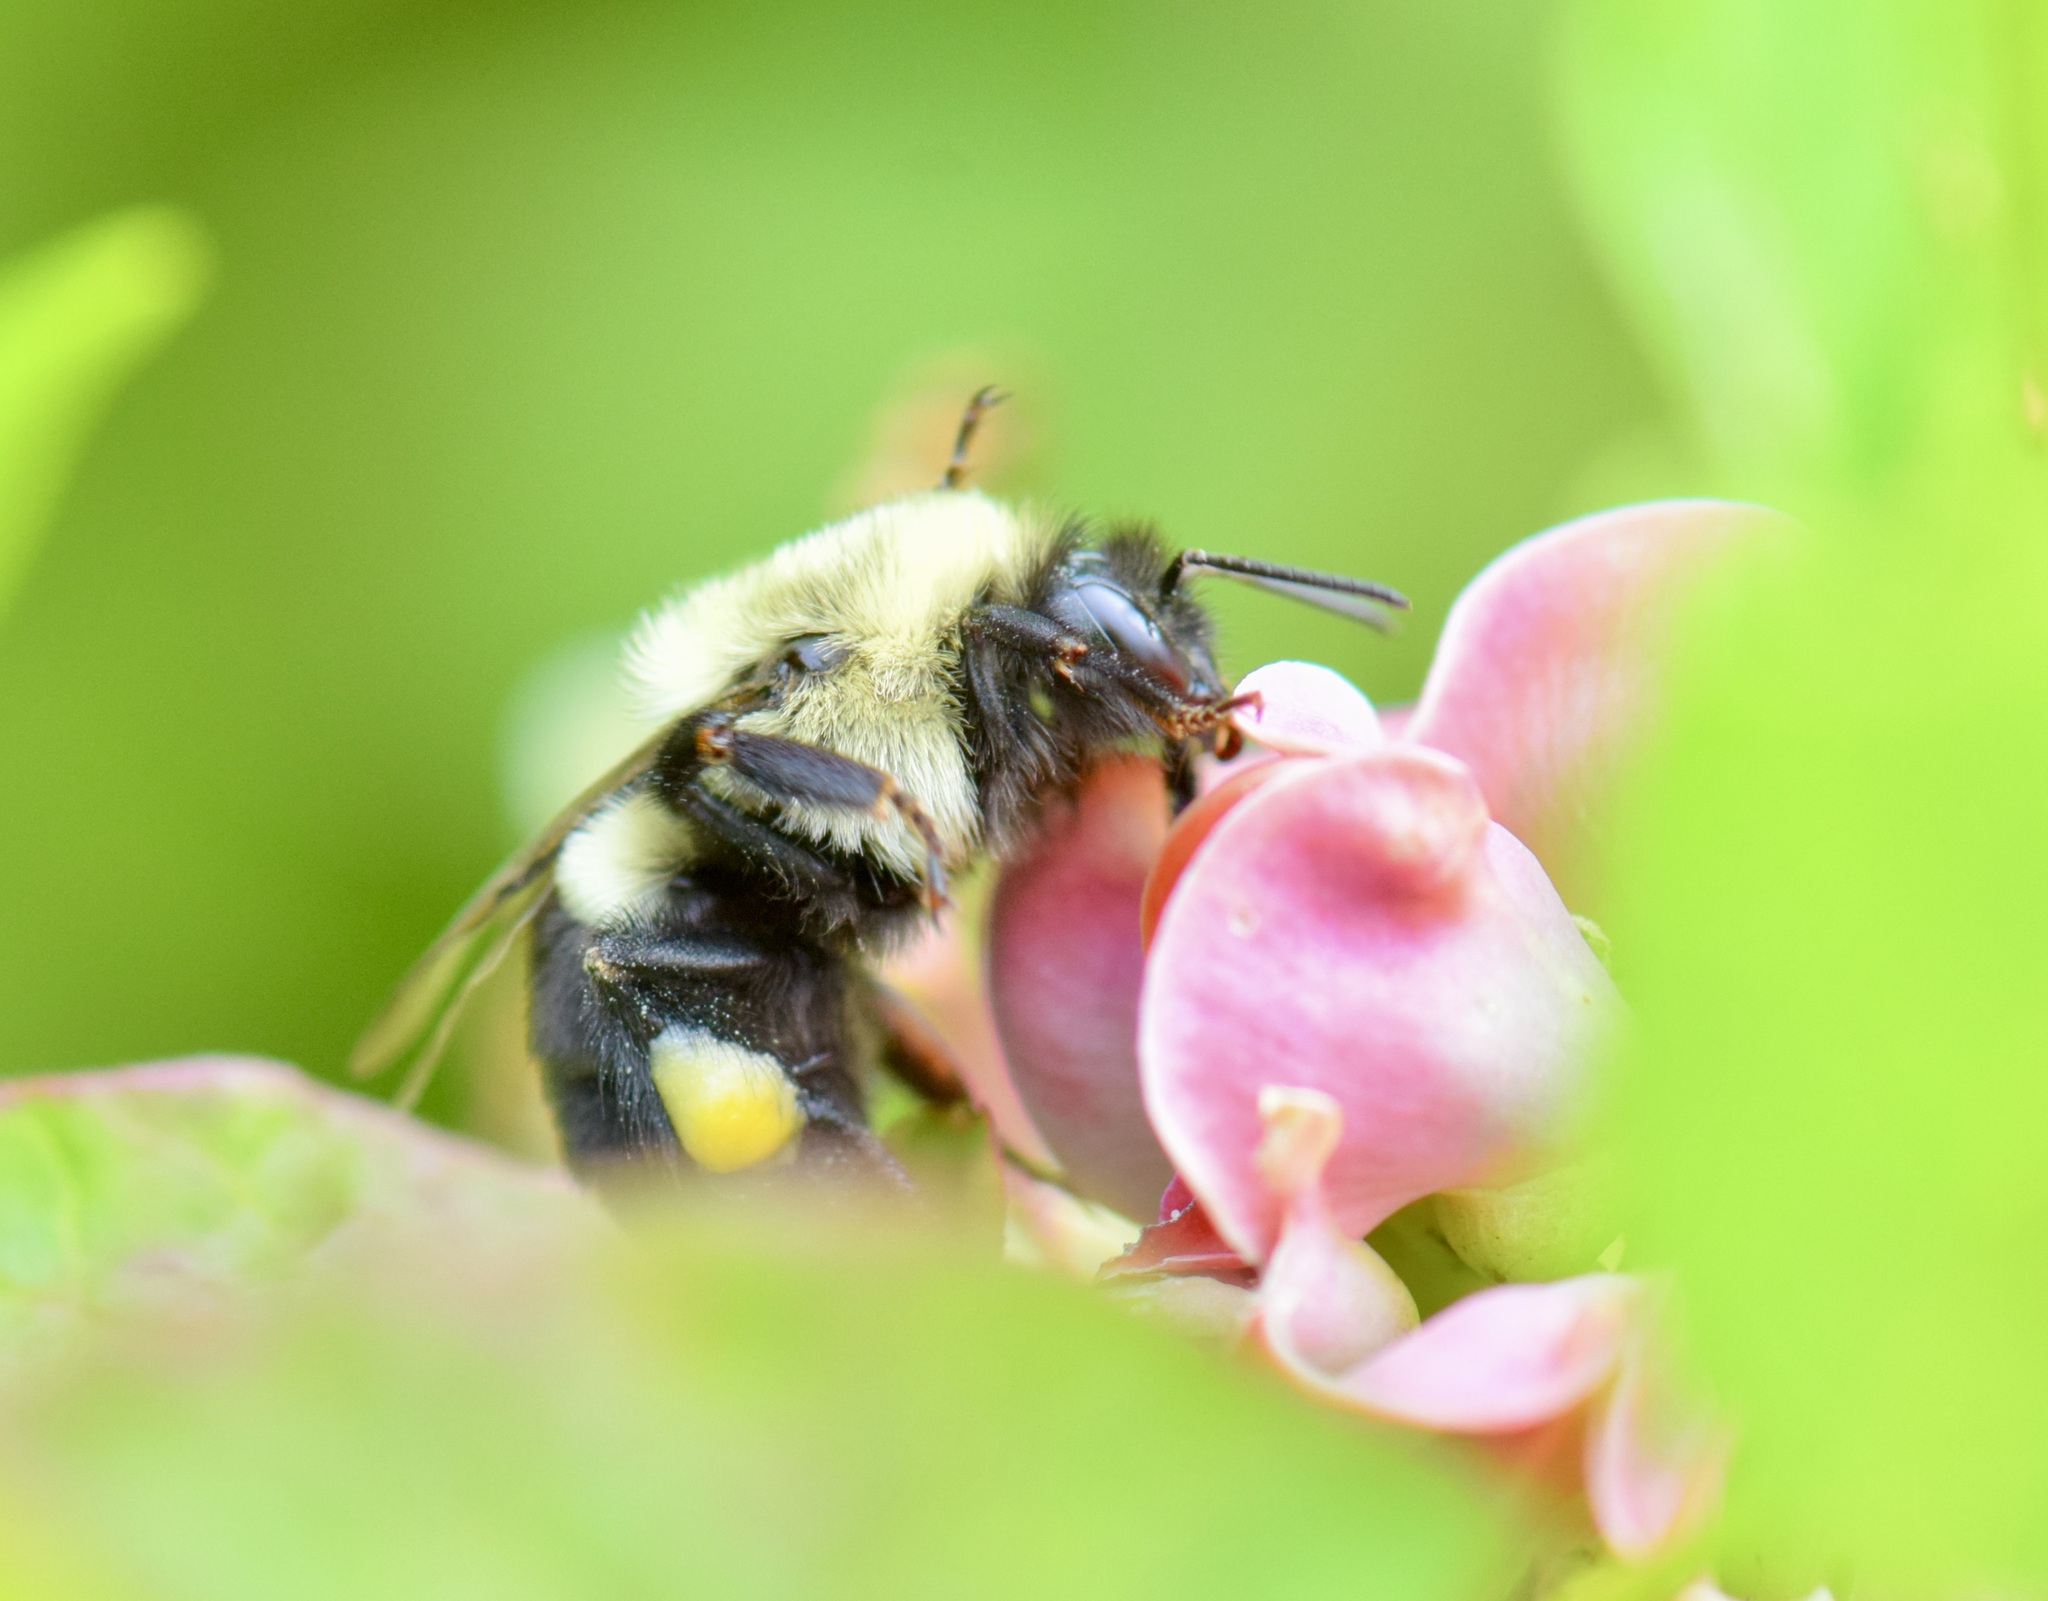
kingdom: Animalia
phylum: Arthropoda
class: Insecta
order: Hymenoptera
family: Apidae
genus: Bombus
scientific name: Bombus impatiens
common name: Common eastern bumble bee
